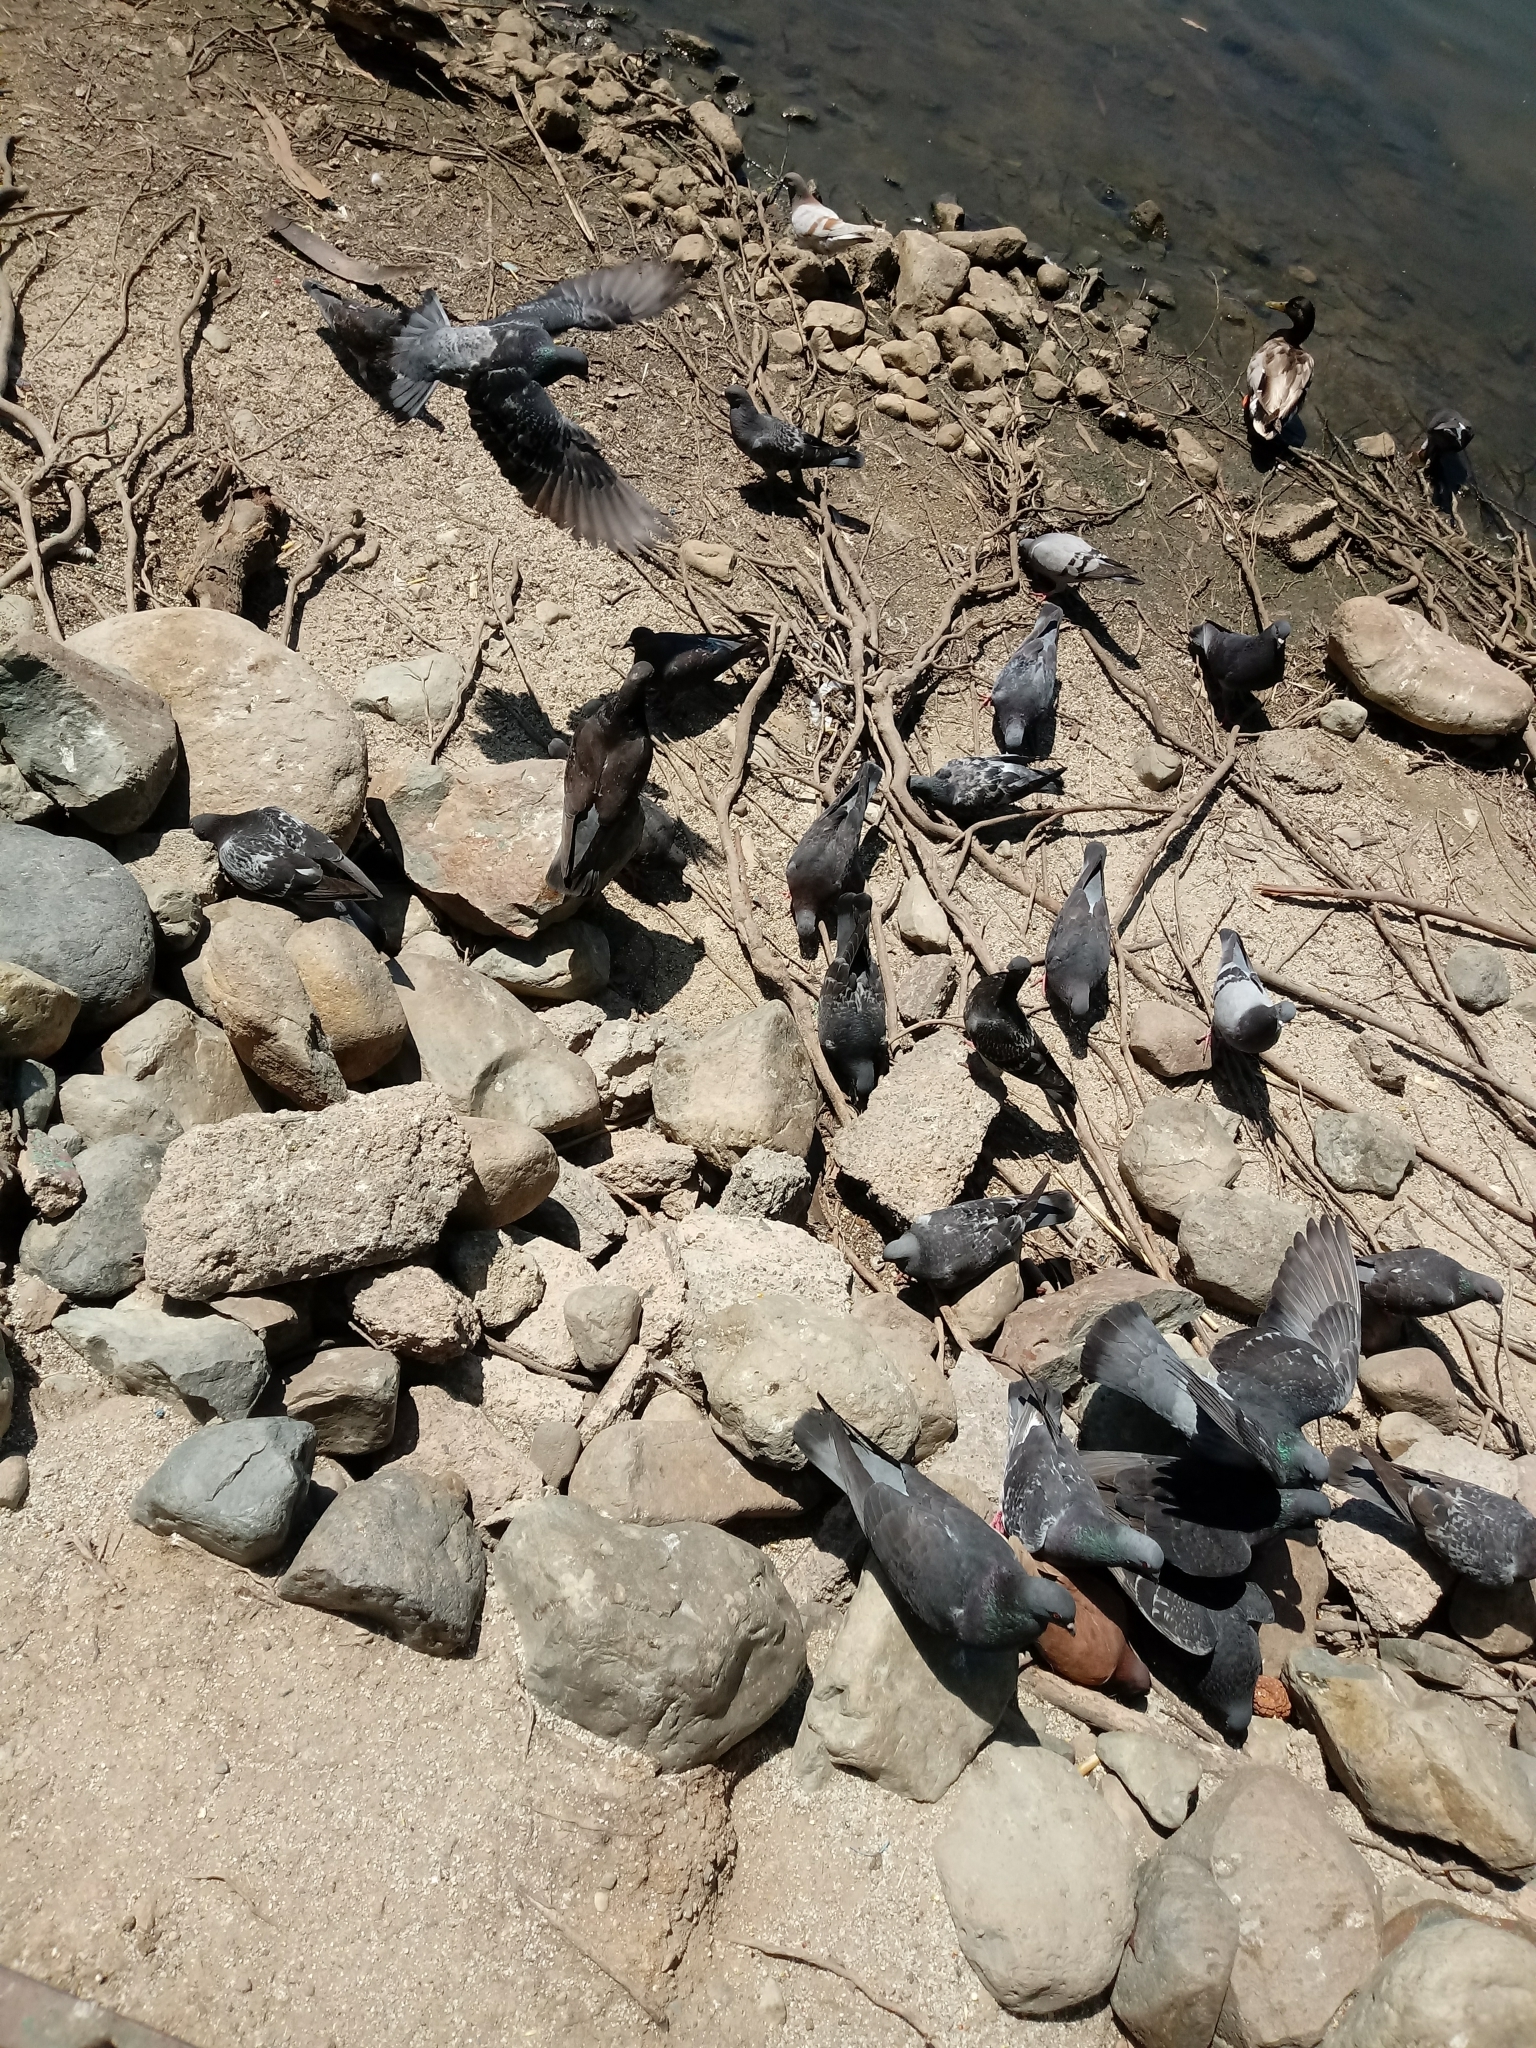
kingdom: Animalia
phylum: Chordata
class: Aves
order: Columbiformes
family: Columbidae
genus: Columba
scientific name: Columba livia
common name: Rock pigeon
